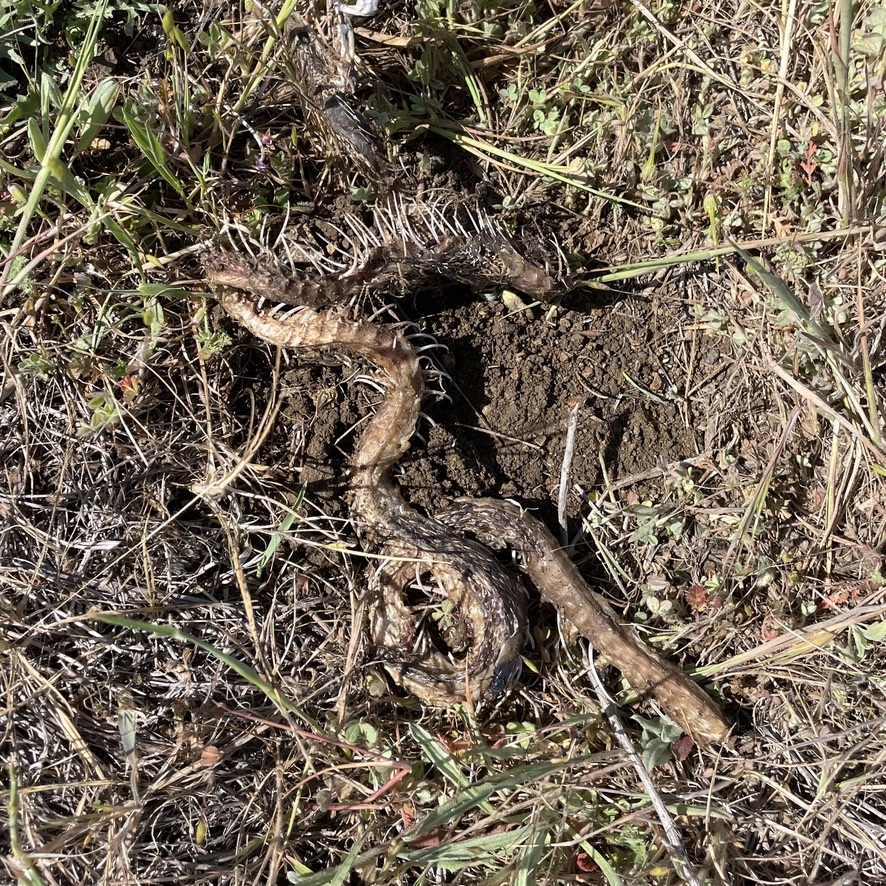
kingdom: Animalia
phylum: Chordata
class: Squamata
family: Colubridae
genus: Pituophis
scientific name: Pituophis catenifer
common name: Gopher snake
